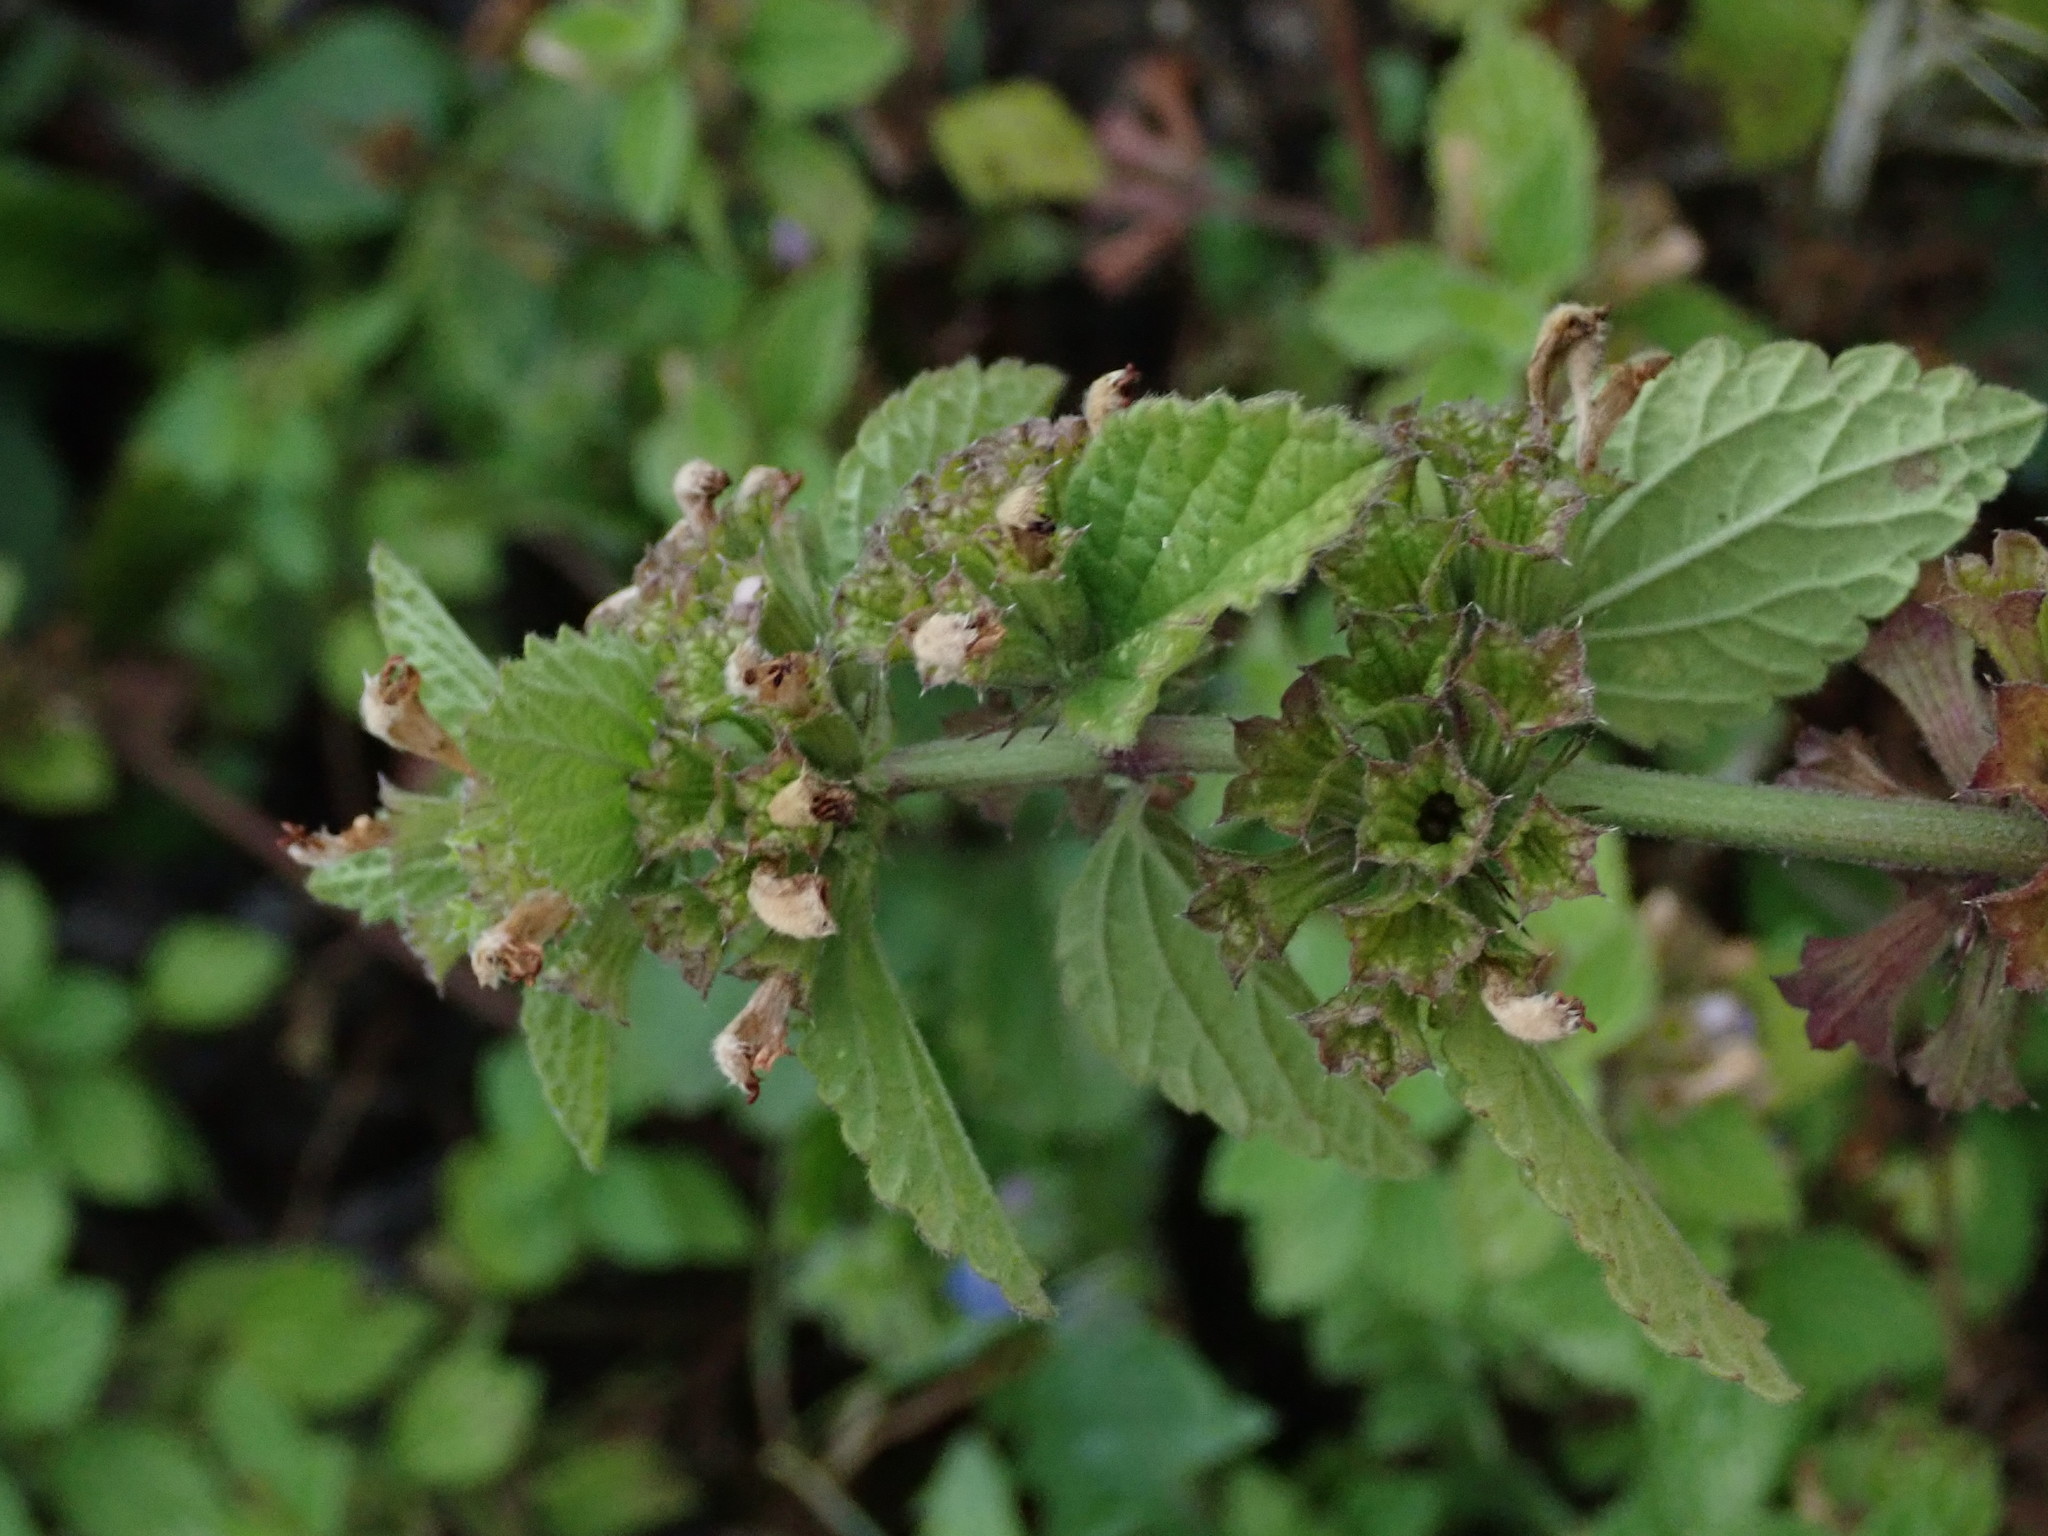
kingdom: Plantae
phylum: Tracheophyta
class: Magnoliopsida
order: Lamiales
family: Lamiaceae
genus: Ballota
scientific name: Ballota nigra
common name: Black horehound
